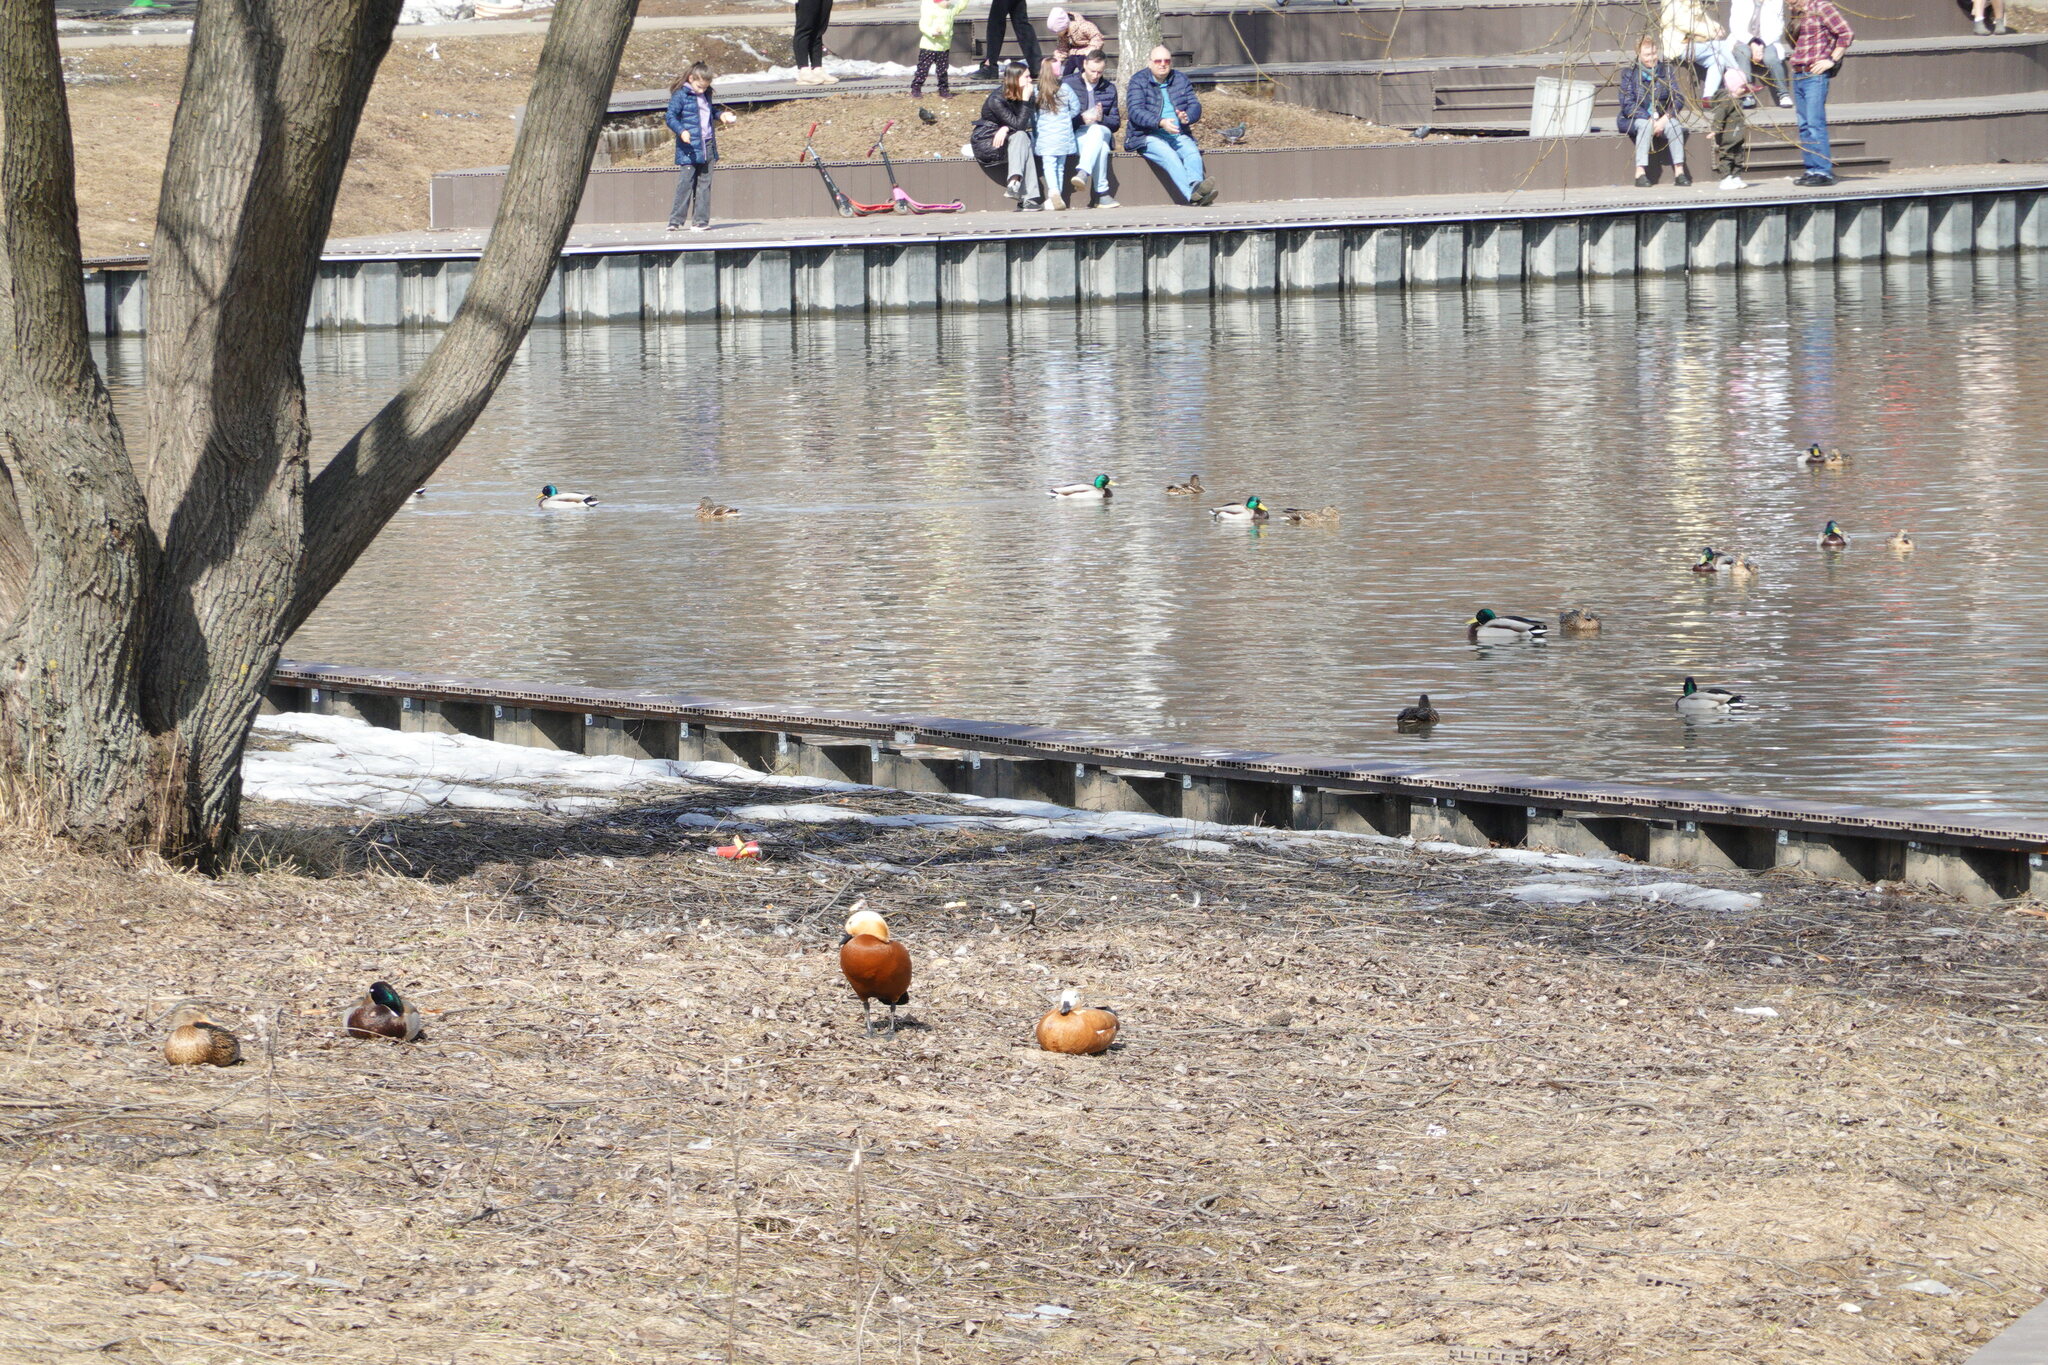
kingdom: Animalia
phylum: Chordata
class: Aves
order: Anseriformes
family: Anatidae
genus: Tadorna
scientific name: Tadorna ferruginea
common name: Ruddy shelduck
